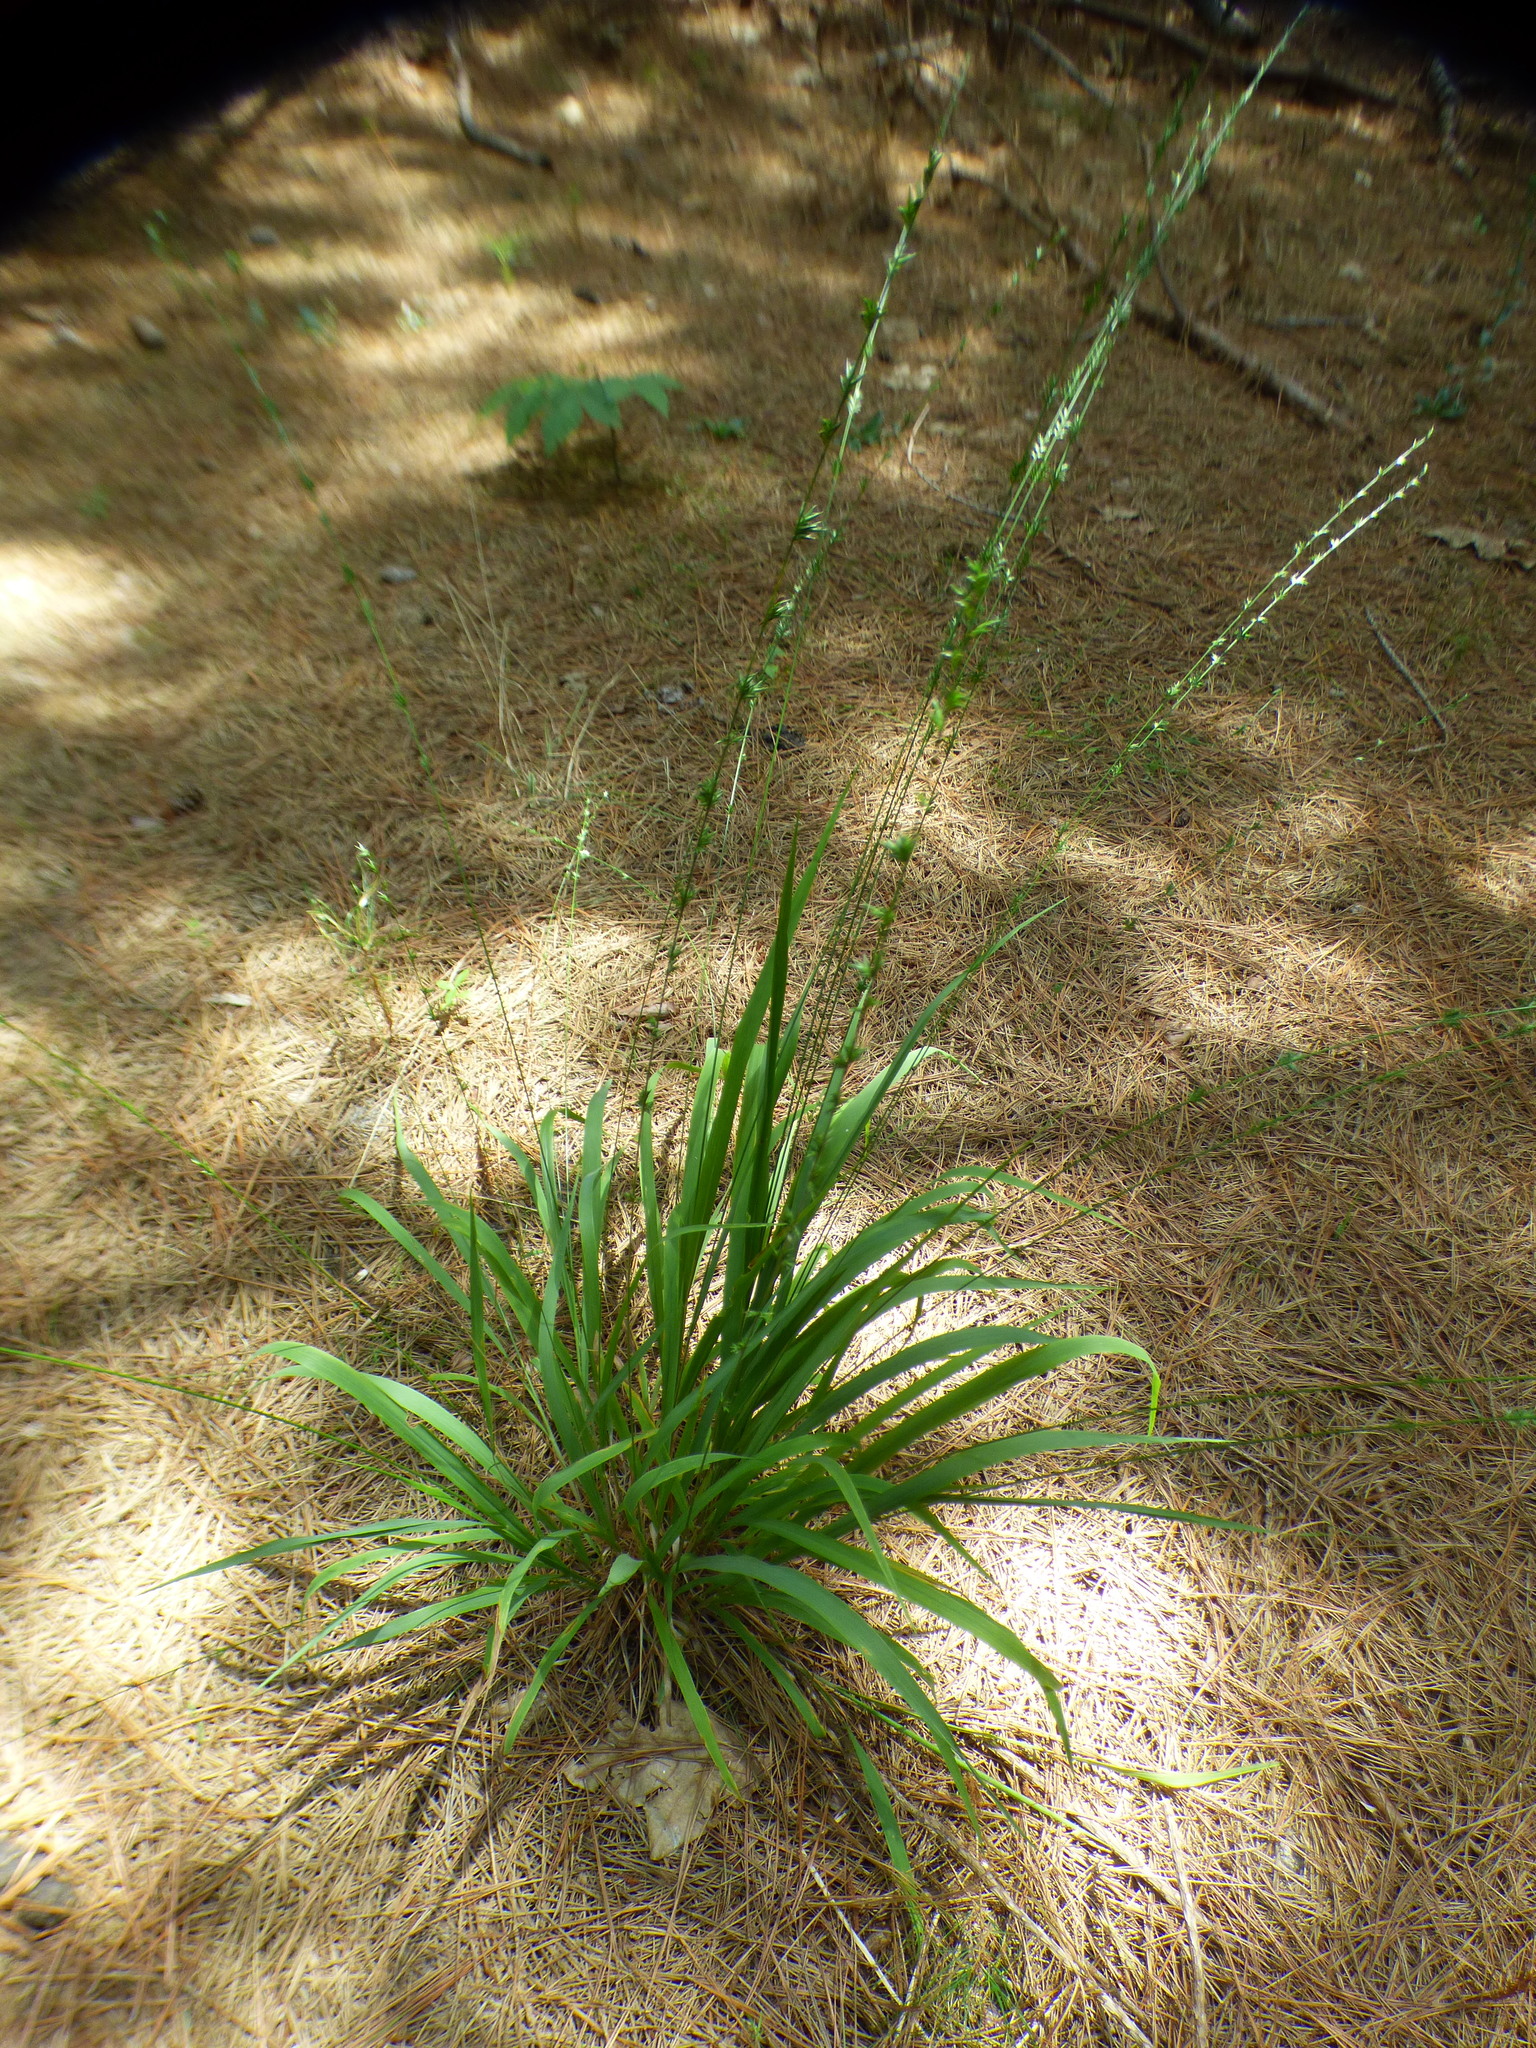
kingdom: Plantae
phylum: Tracheophyta
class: Liliopsida
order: Poales
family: Poaceae
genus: Chasmanthium
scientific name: Chasmanthium laxum
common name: Slender chasmanthium
